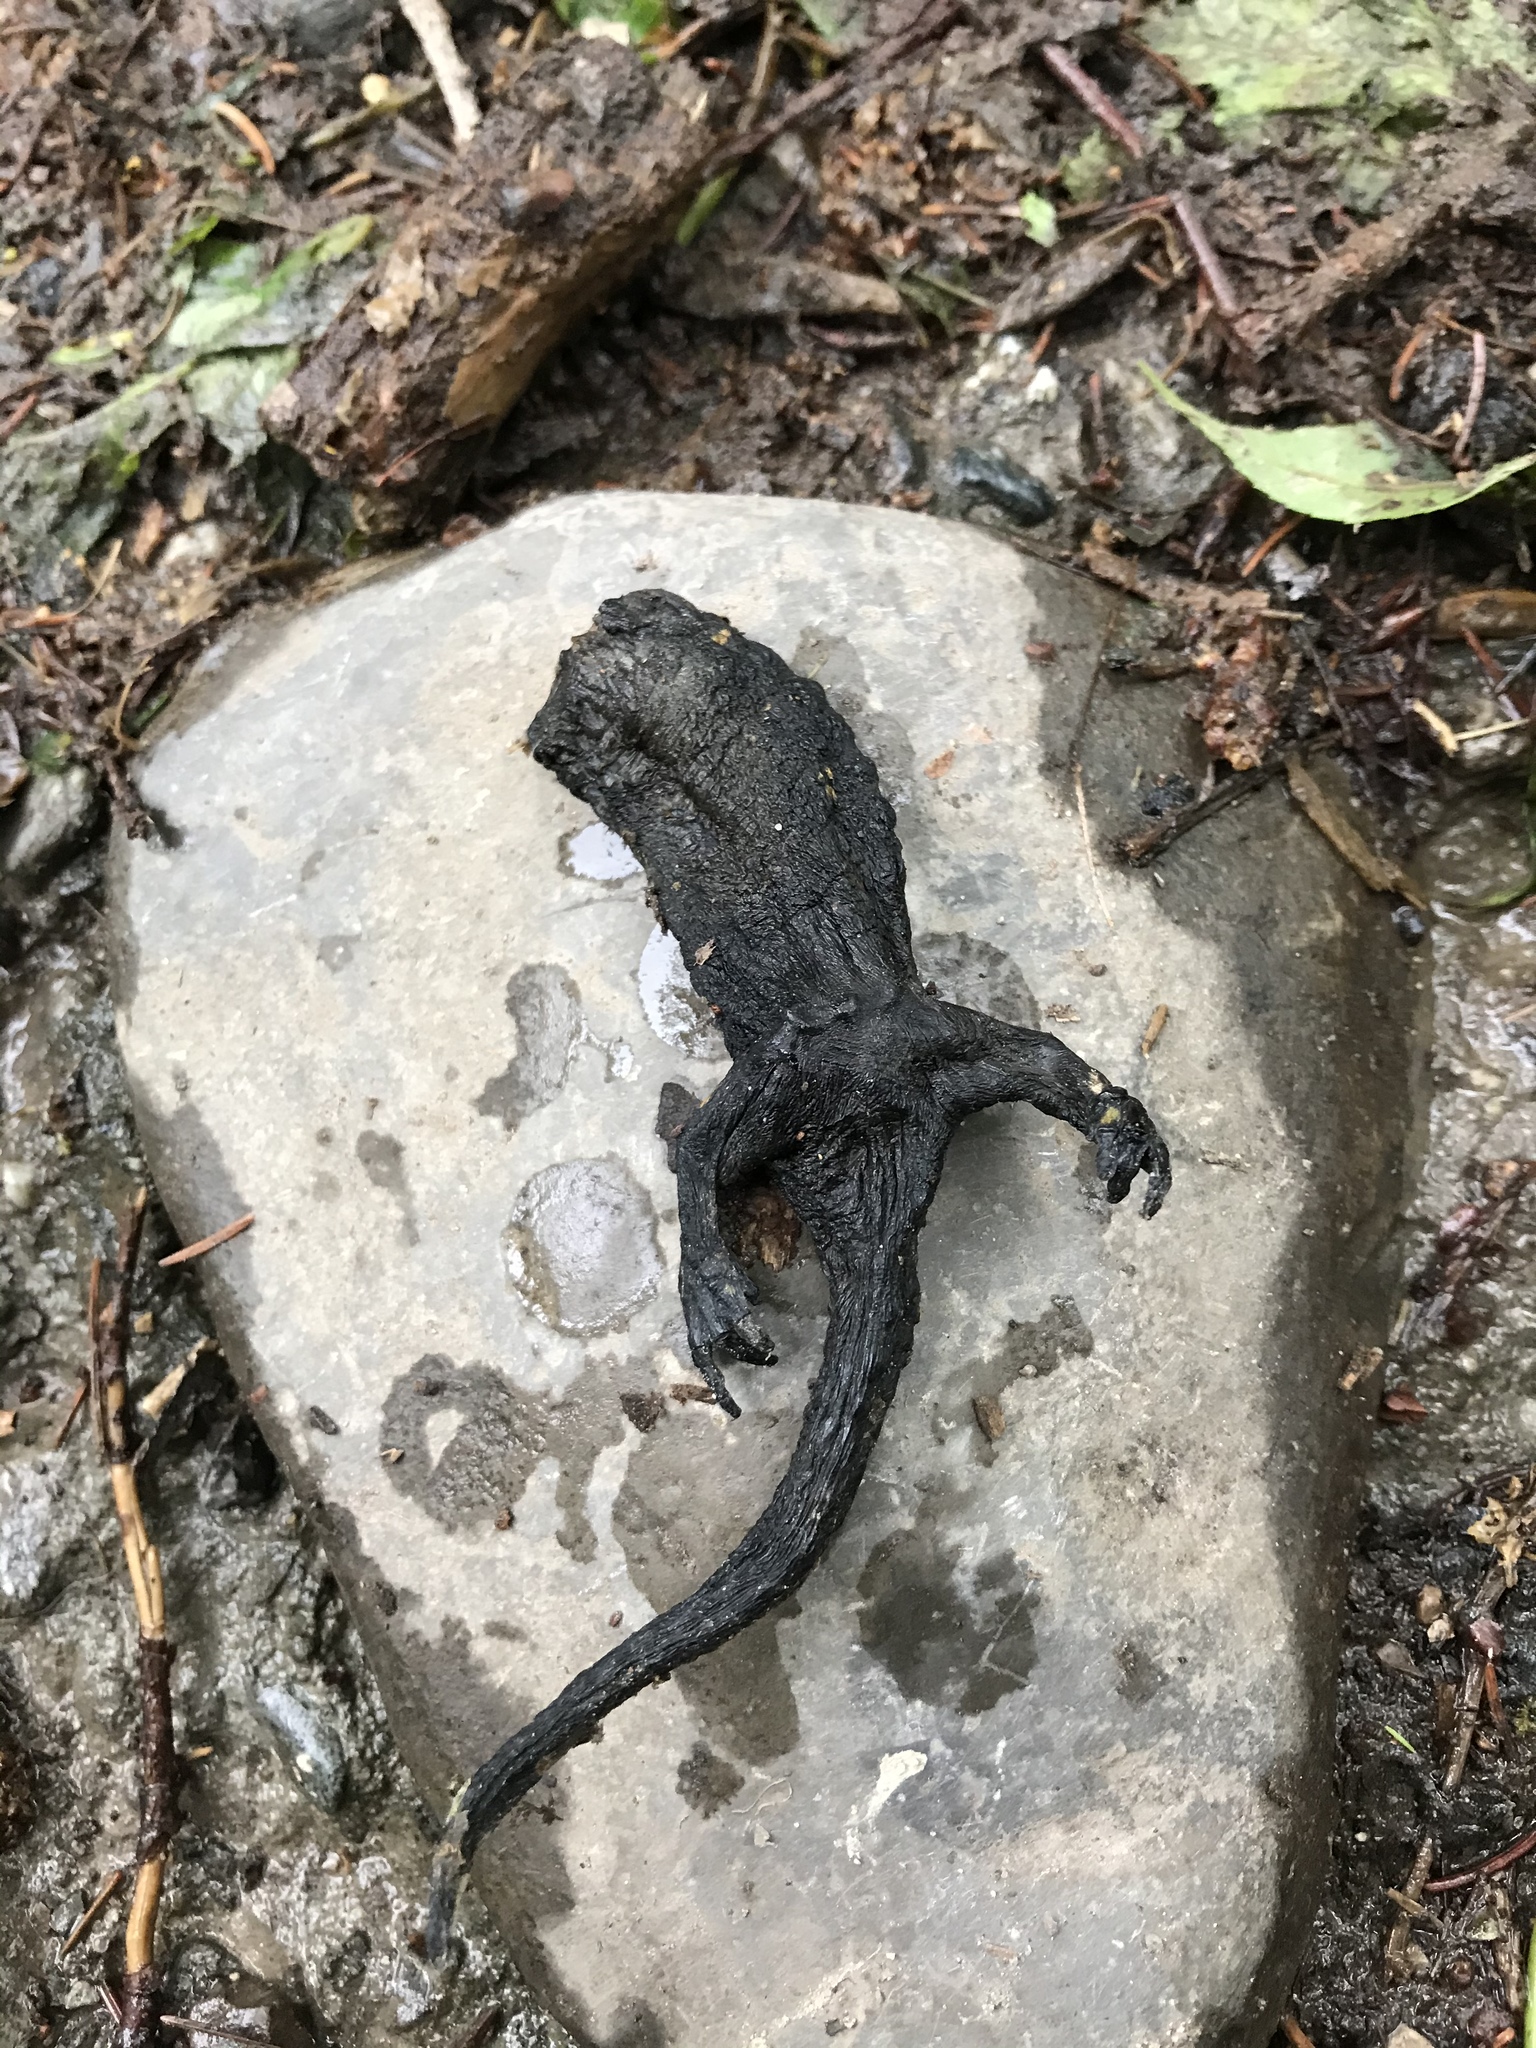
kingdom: Animalia
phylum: Chordata
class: Amphibia
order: Caudata
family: Salamandridae
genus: Salamandra
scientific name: Salamandra salamandra
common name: Fire salamander
